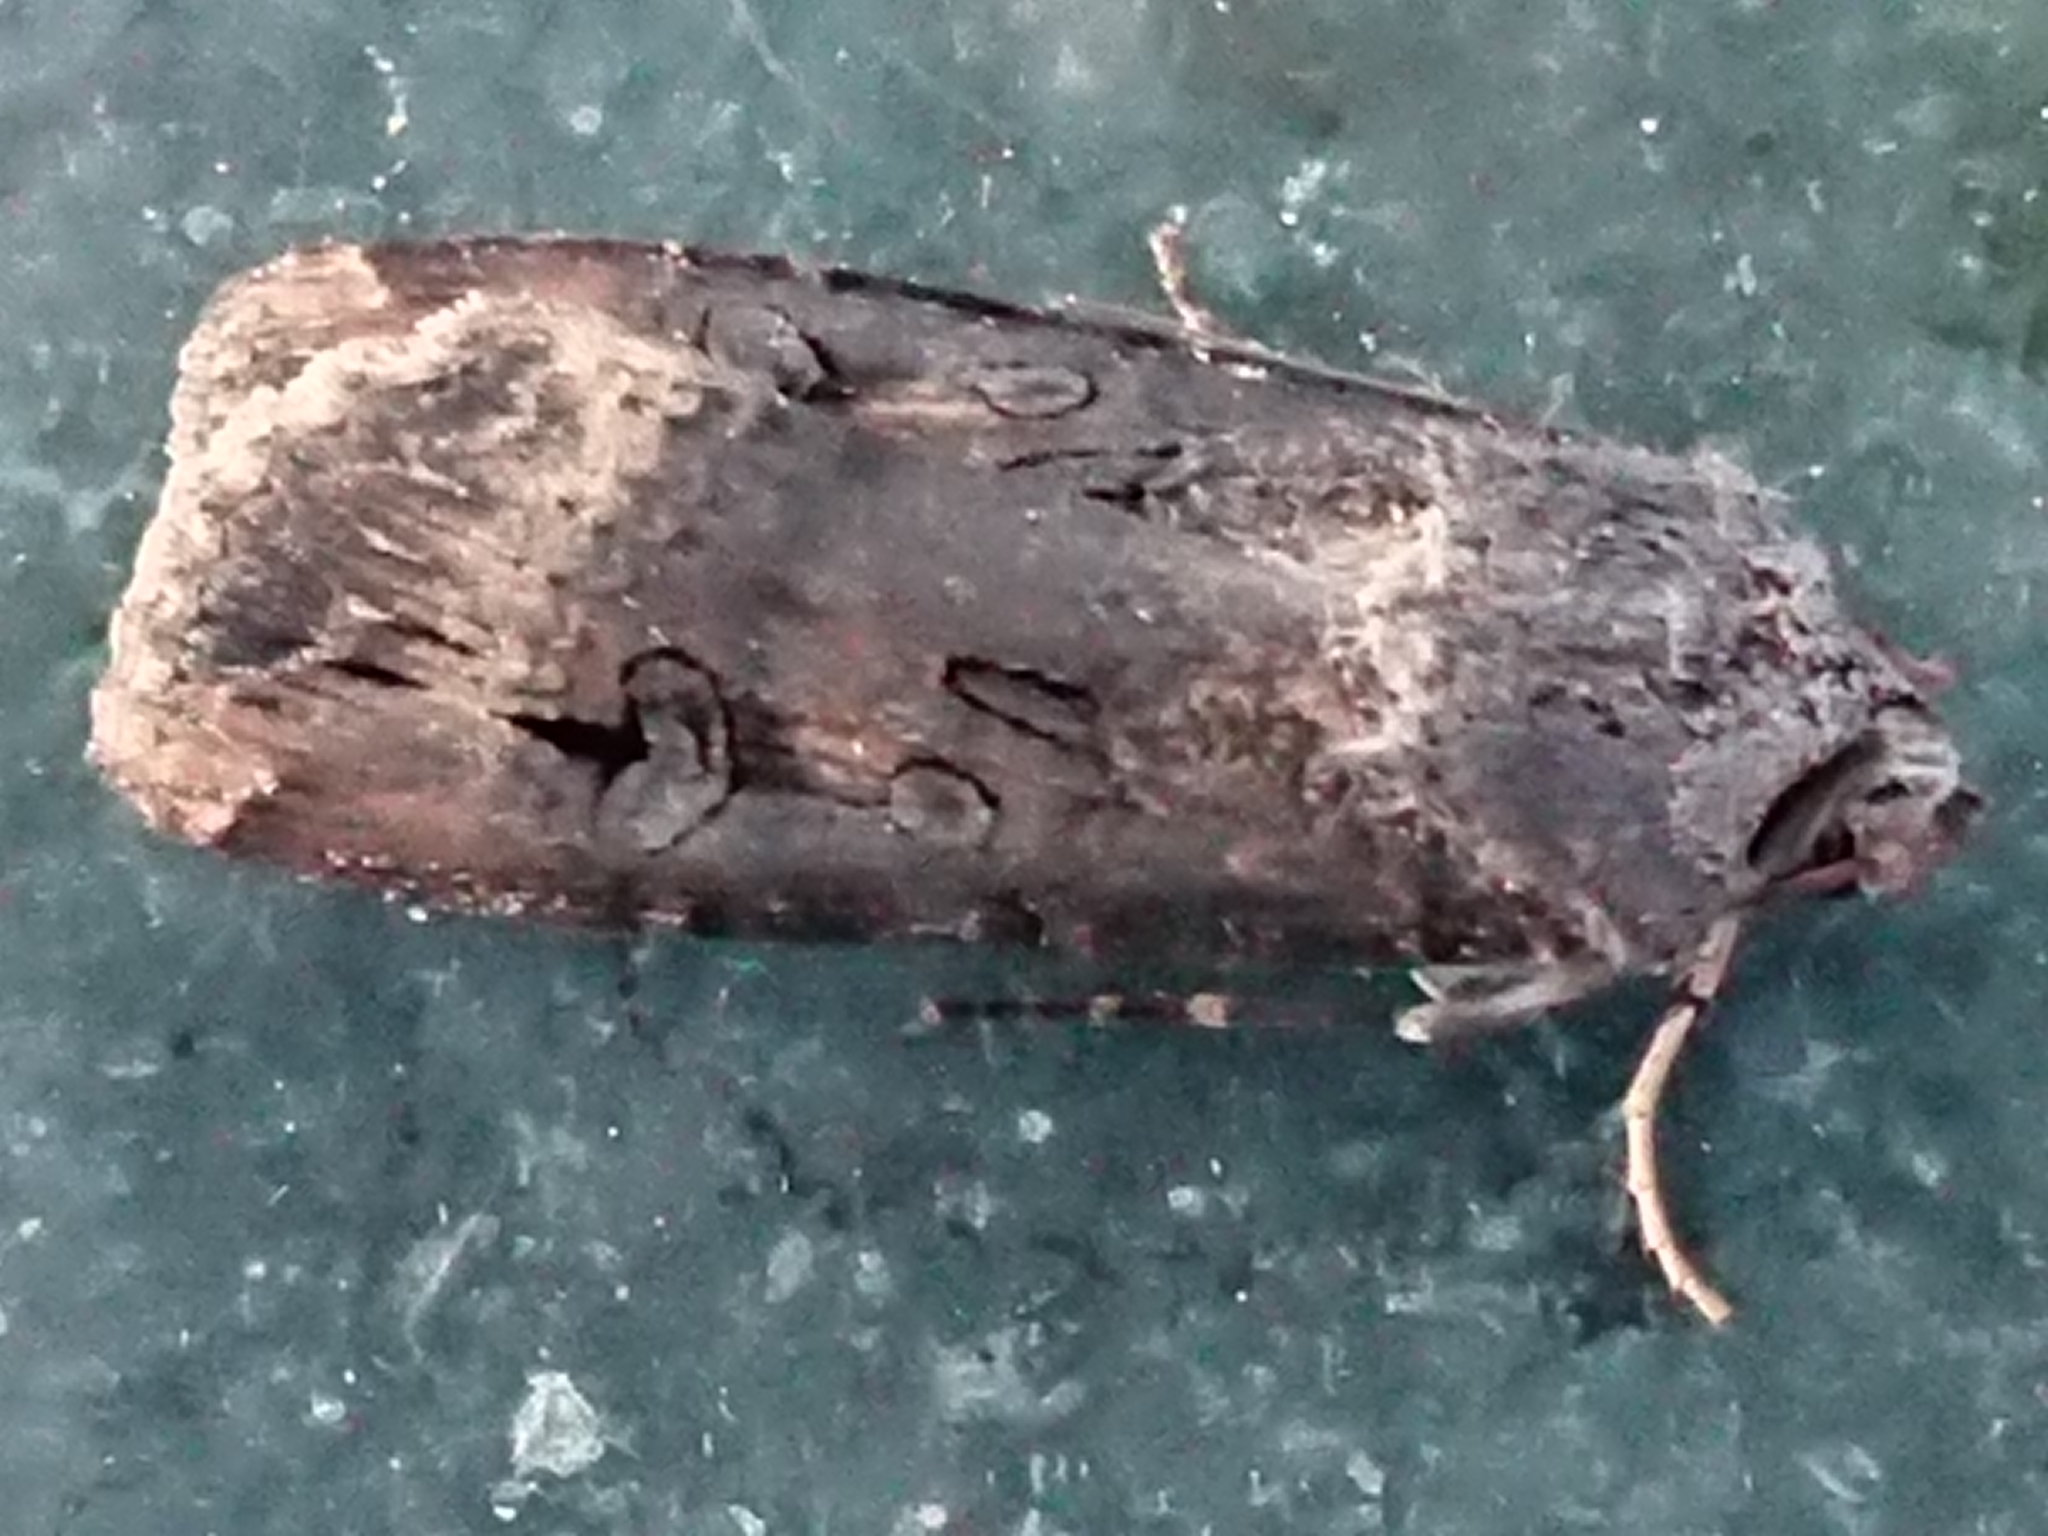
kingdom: Animalia
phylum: Arthropoda
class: Insecta
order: Lepidoptera
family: Noctuidae
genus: Agrotis
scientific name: Agrotis ipsilon
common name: Dark sword-grass
